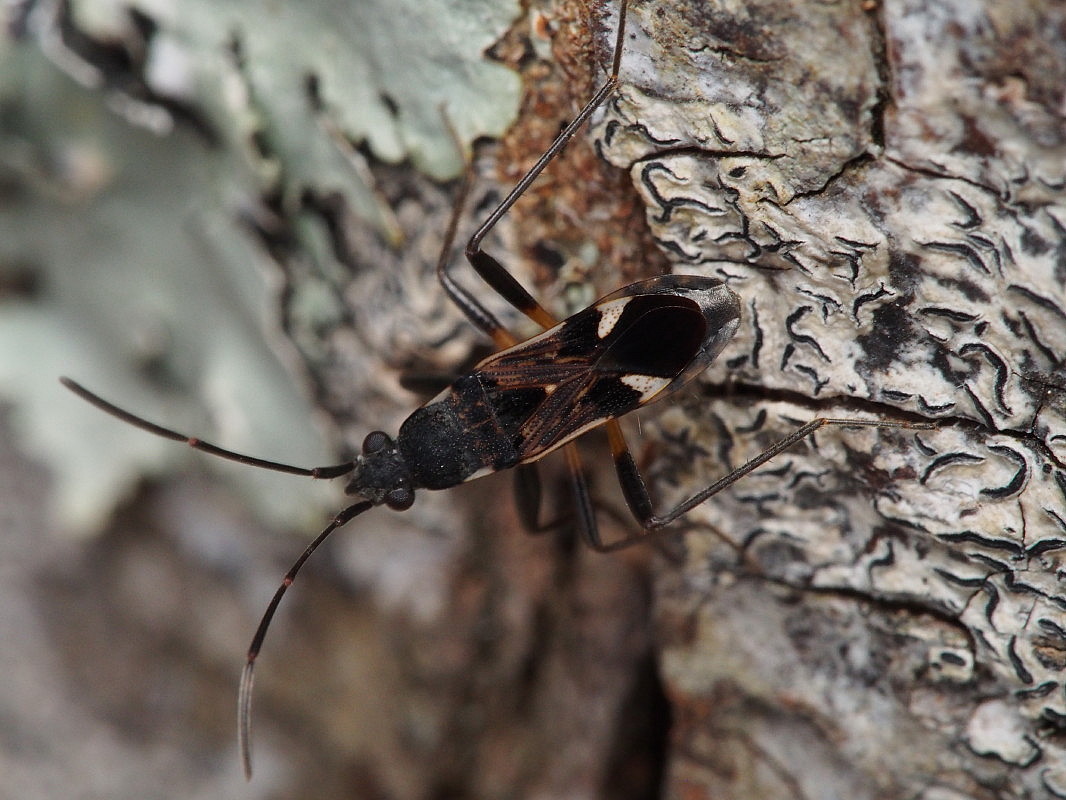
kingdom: Animalia
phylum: Arthropoda
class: Insecta
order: Hemiptera
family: Rhyparochromidae
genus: Dieuches
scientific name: Dieuches notatus
